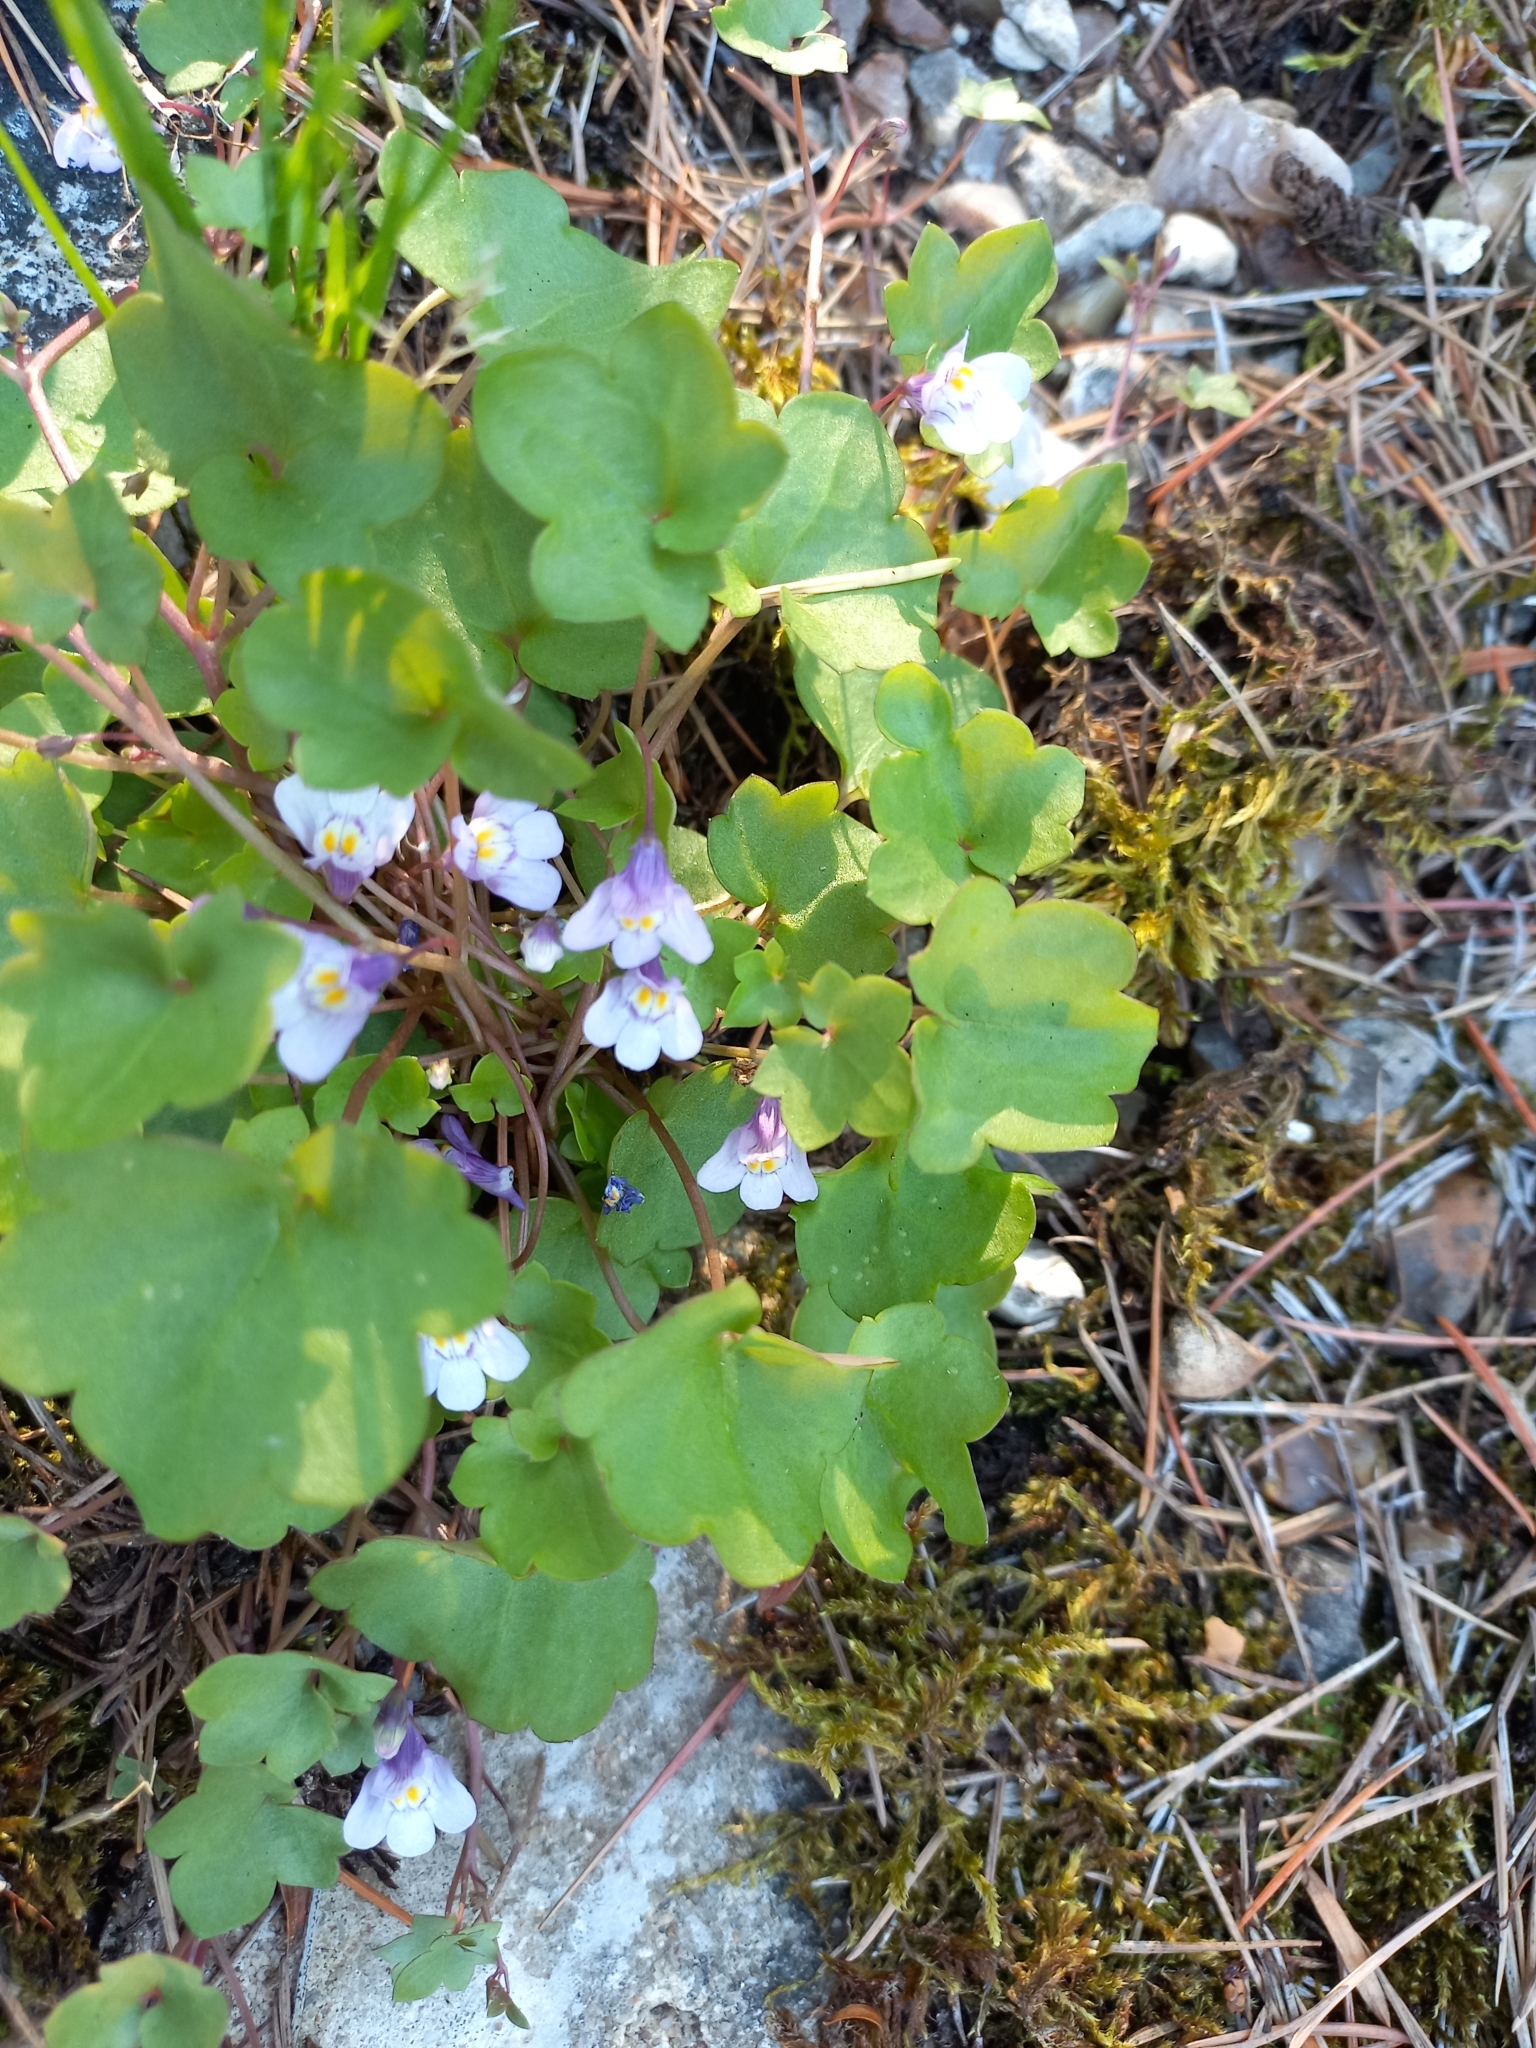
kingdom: Plantae
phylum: Tracheophyta
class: Magnoliopsida
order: Lamiales
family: Plantaginaceae
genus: Cymbalaria
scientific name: Cymbalaria muralis
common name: Ivy-leaved toadflax
